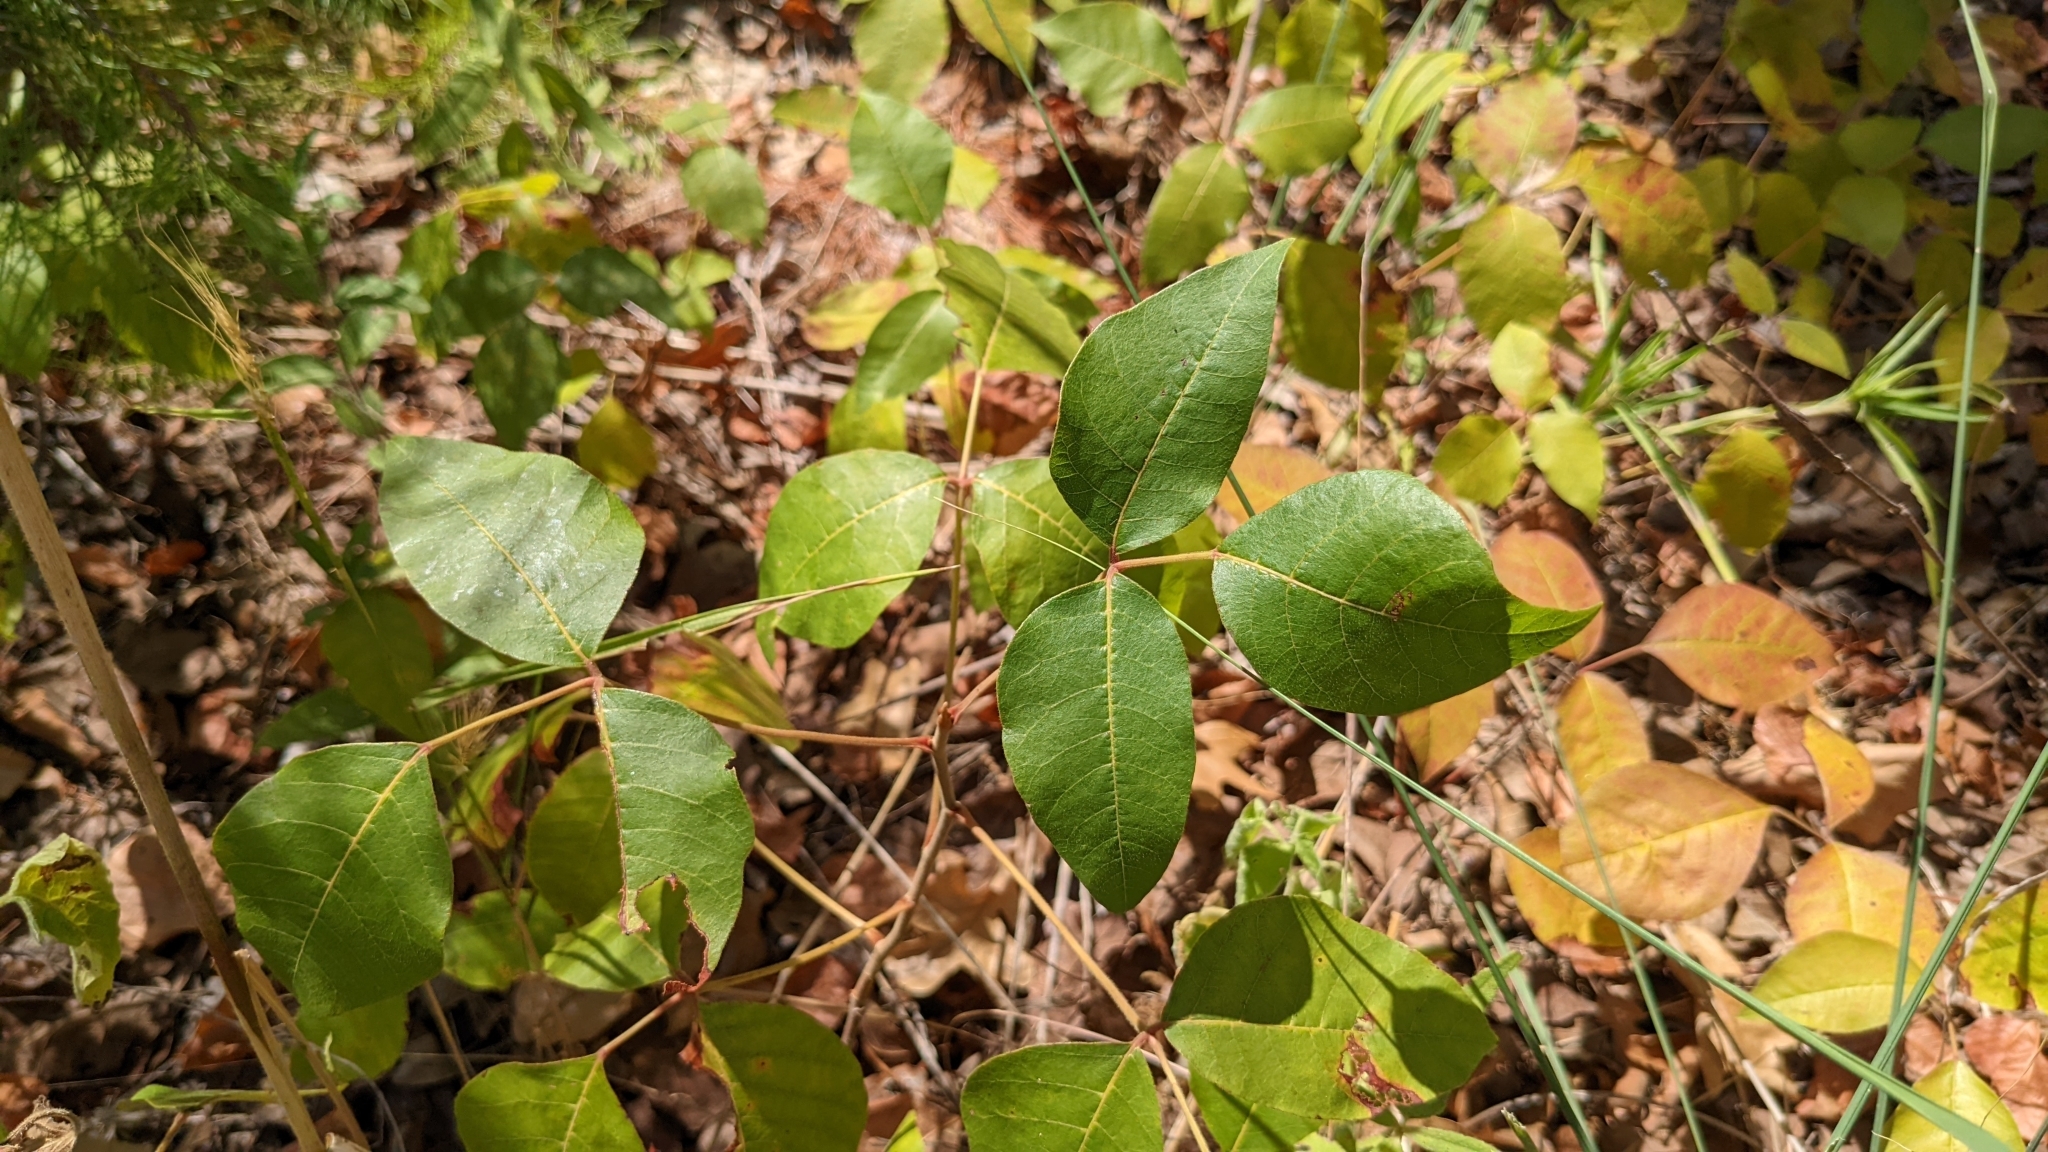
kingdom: Plantae
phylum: Tracheophyta
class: Magnoliopsida
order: Sapindales
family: Anacardiaceae
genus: Toxicodendron
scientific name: Toxicodendron radicans
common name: Poison ivy
